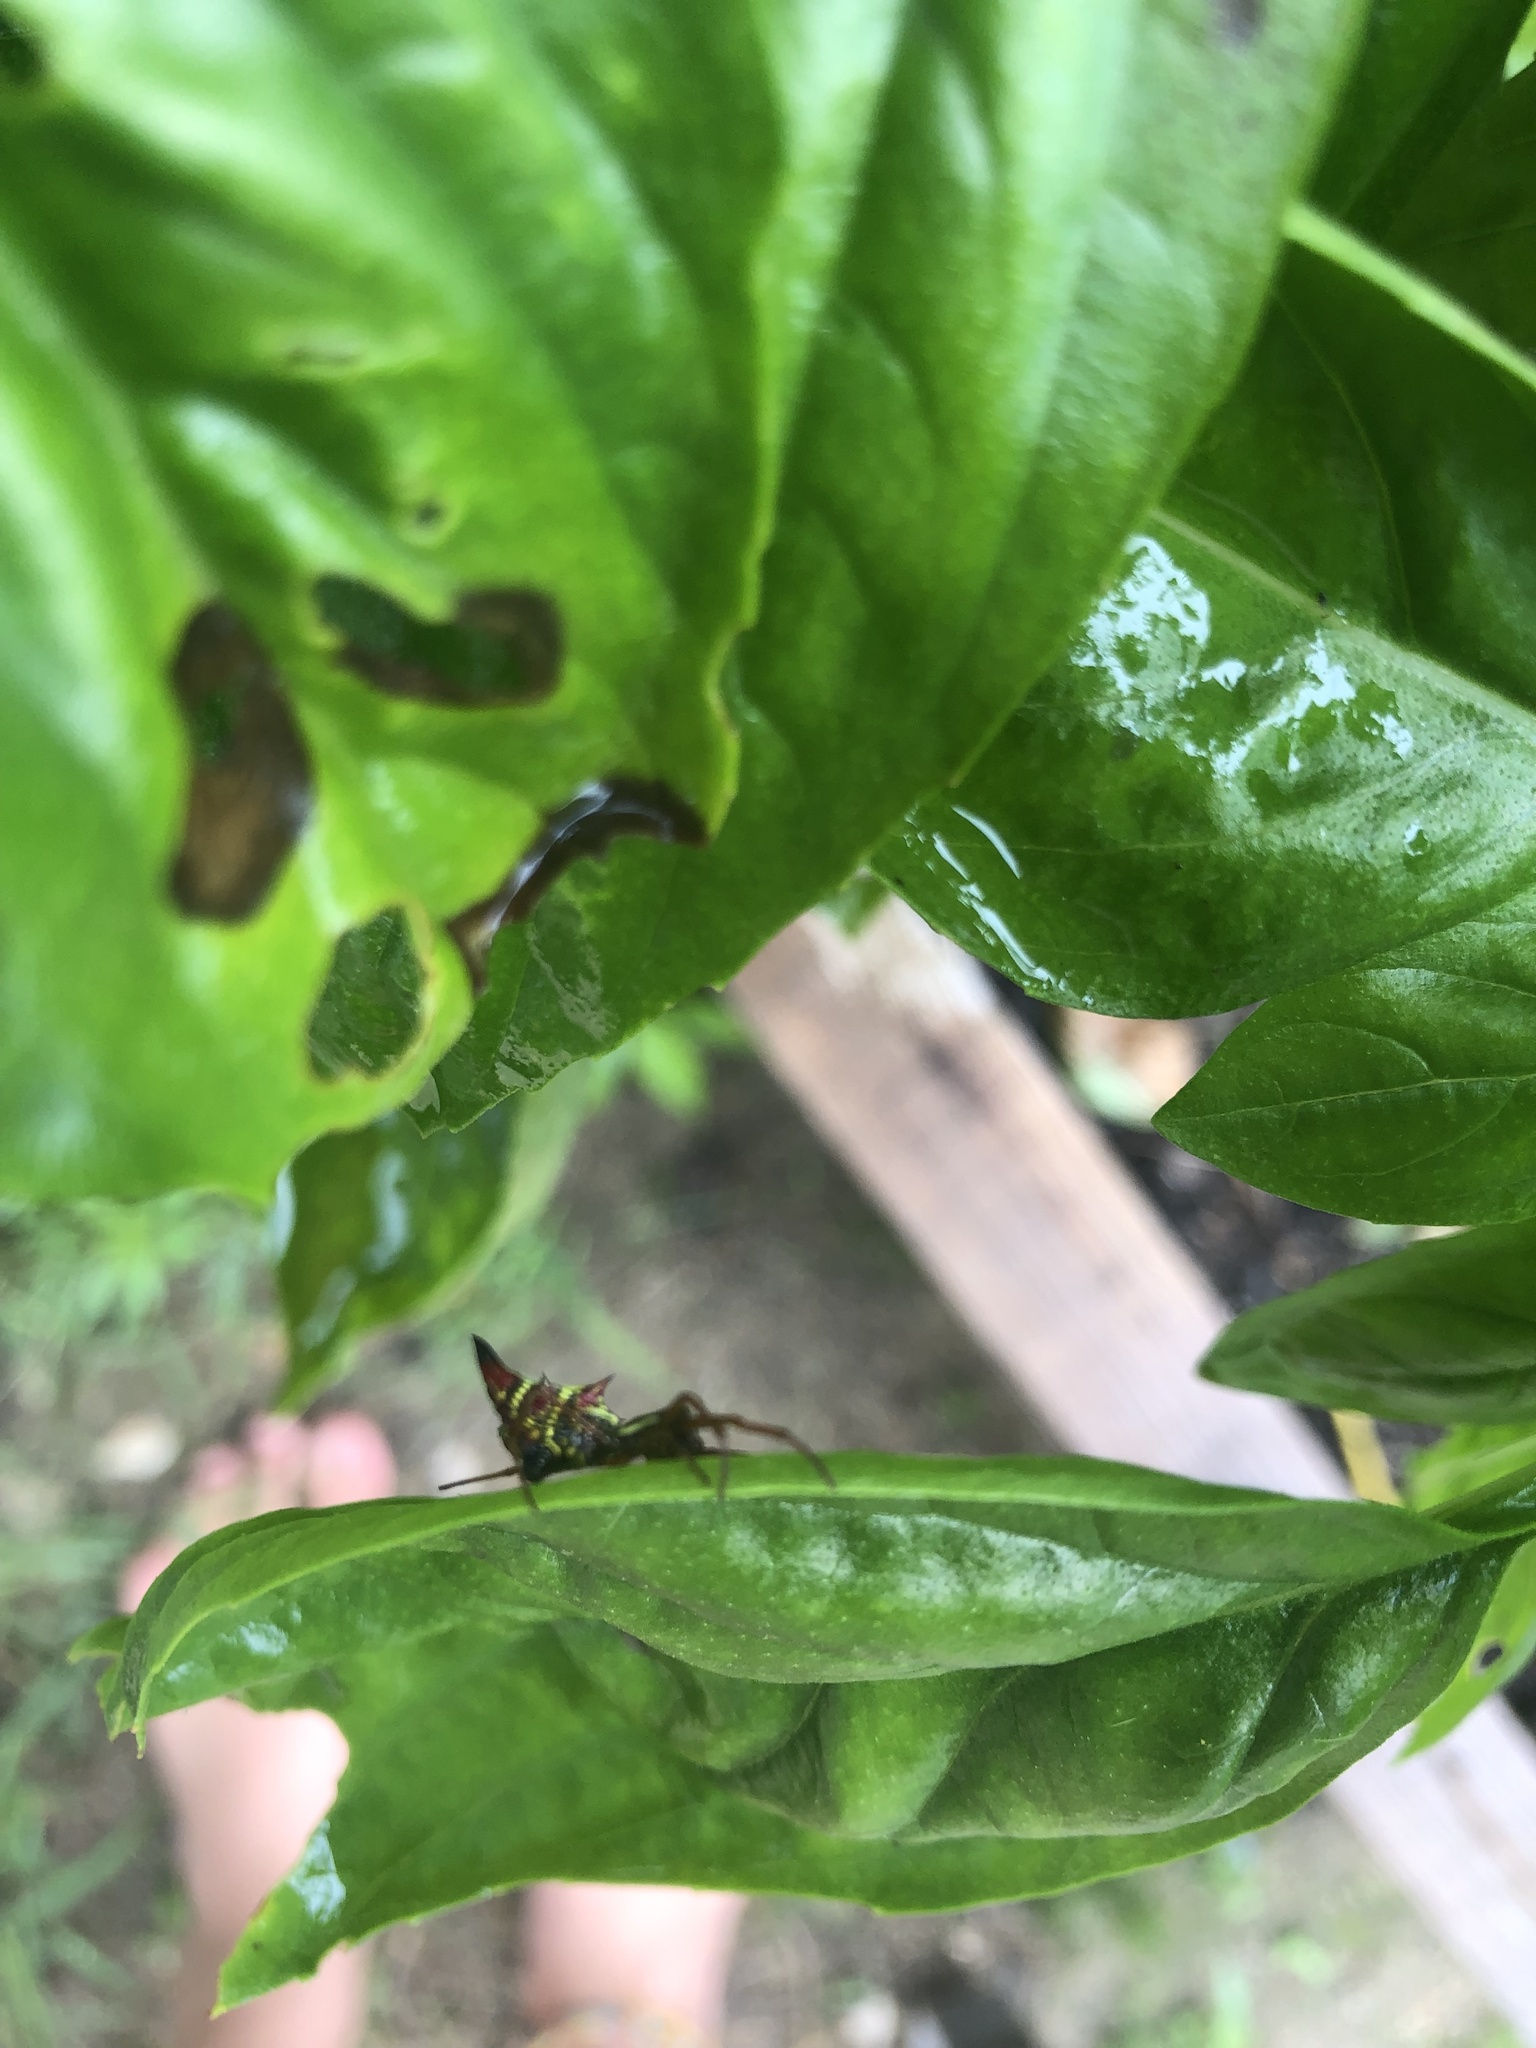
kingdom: Animalia
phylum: Arthropoda
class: Arachnida
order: Araneae
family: Araneidae
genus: Micrathena
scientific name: Micrathena sagittata
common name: Orb weavers
